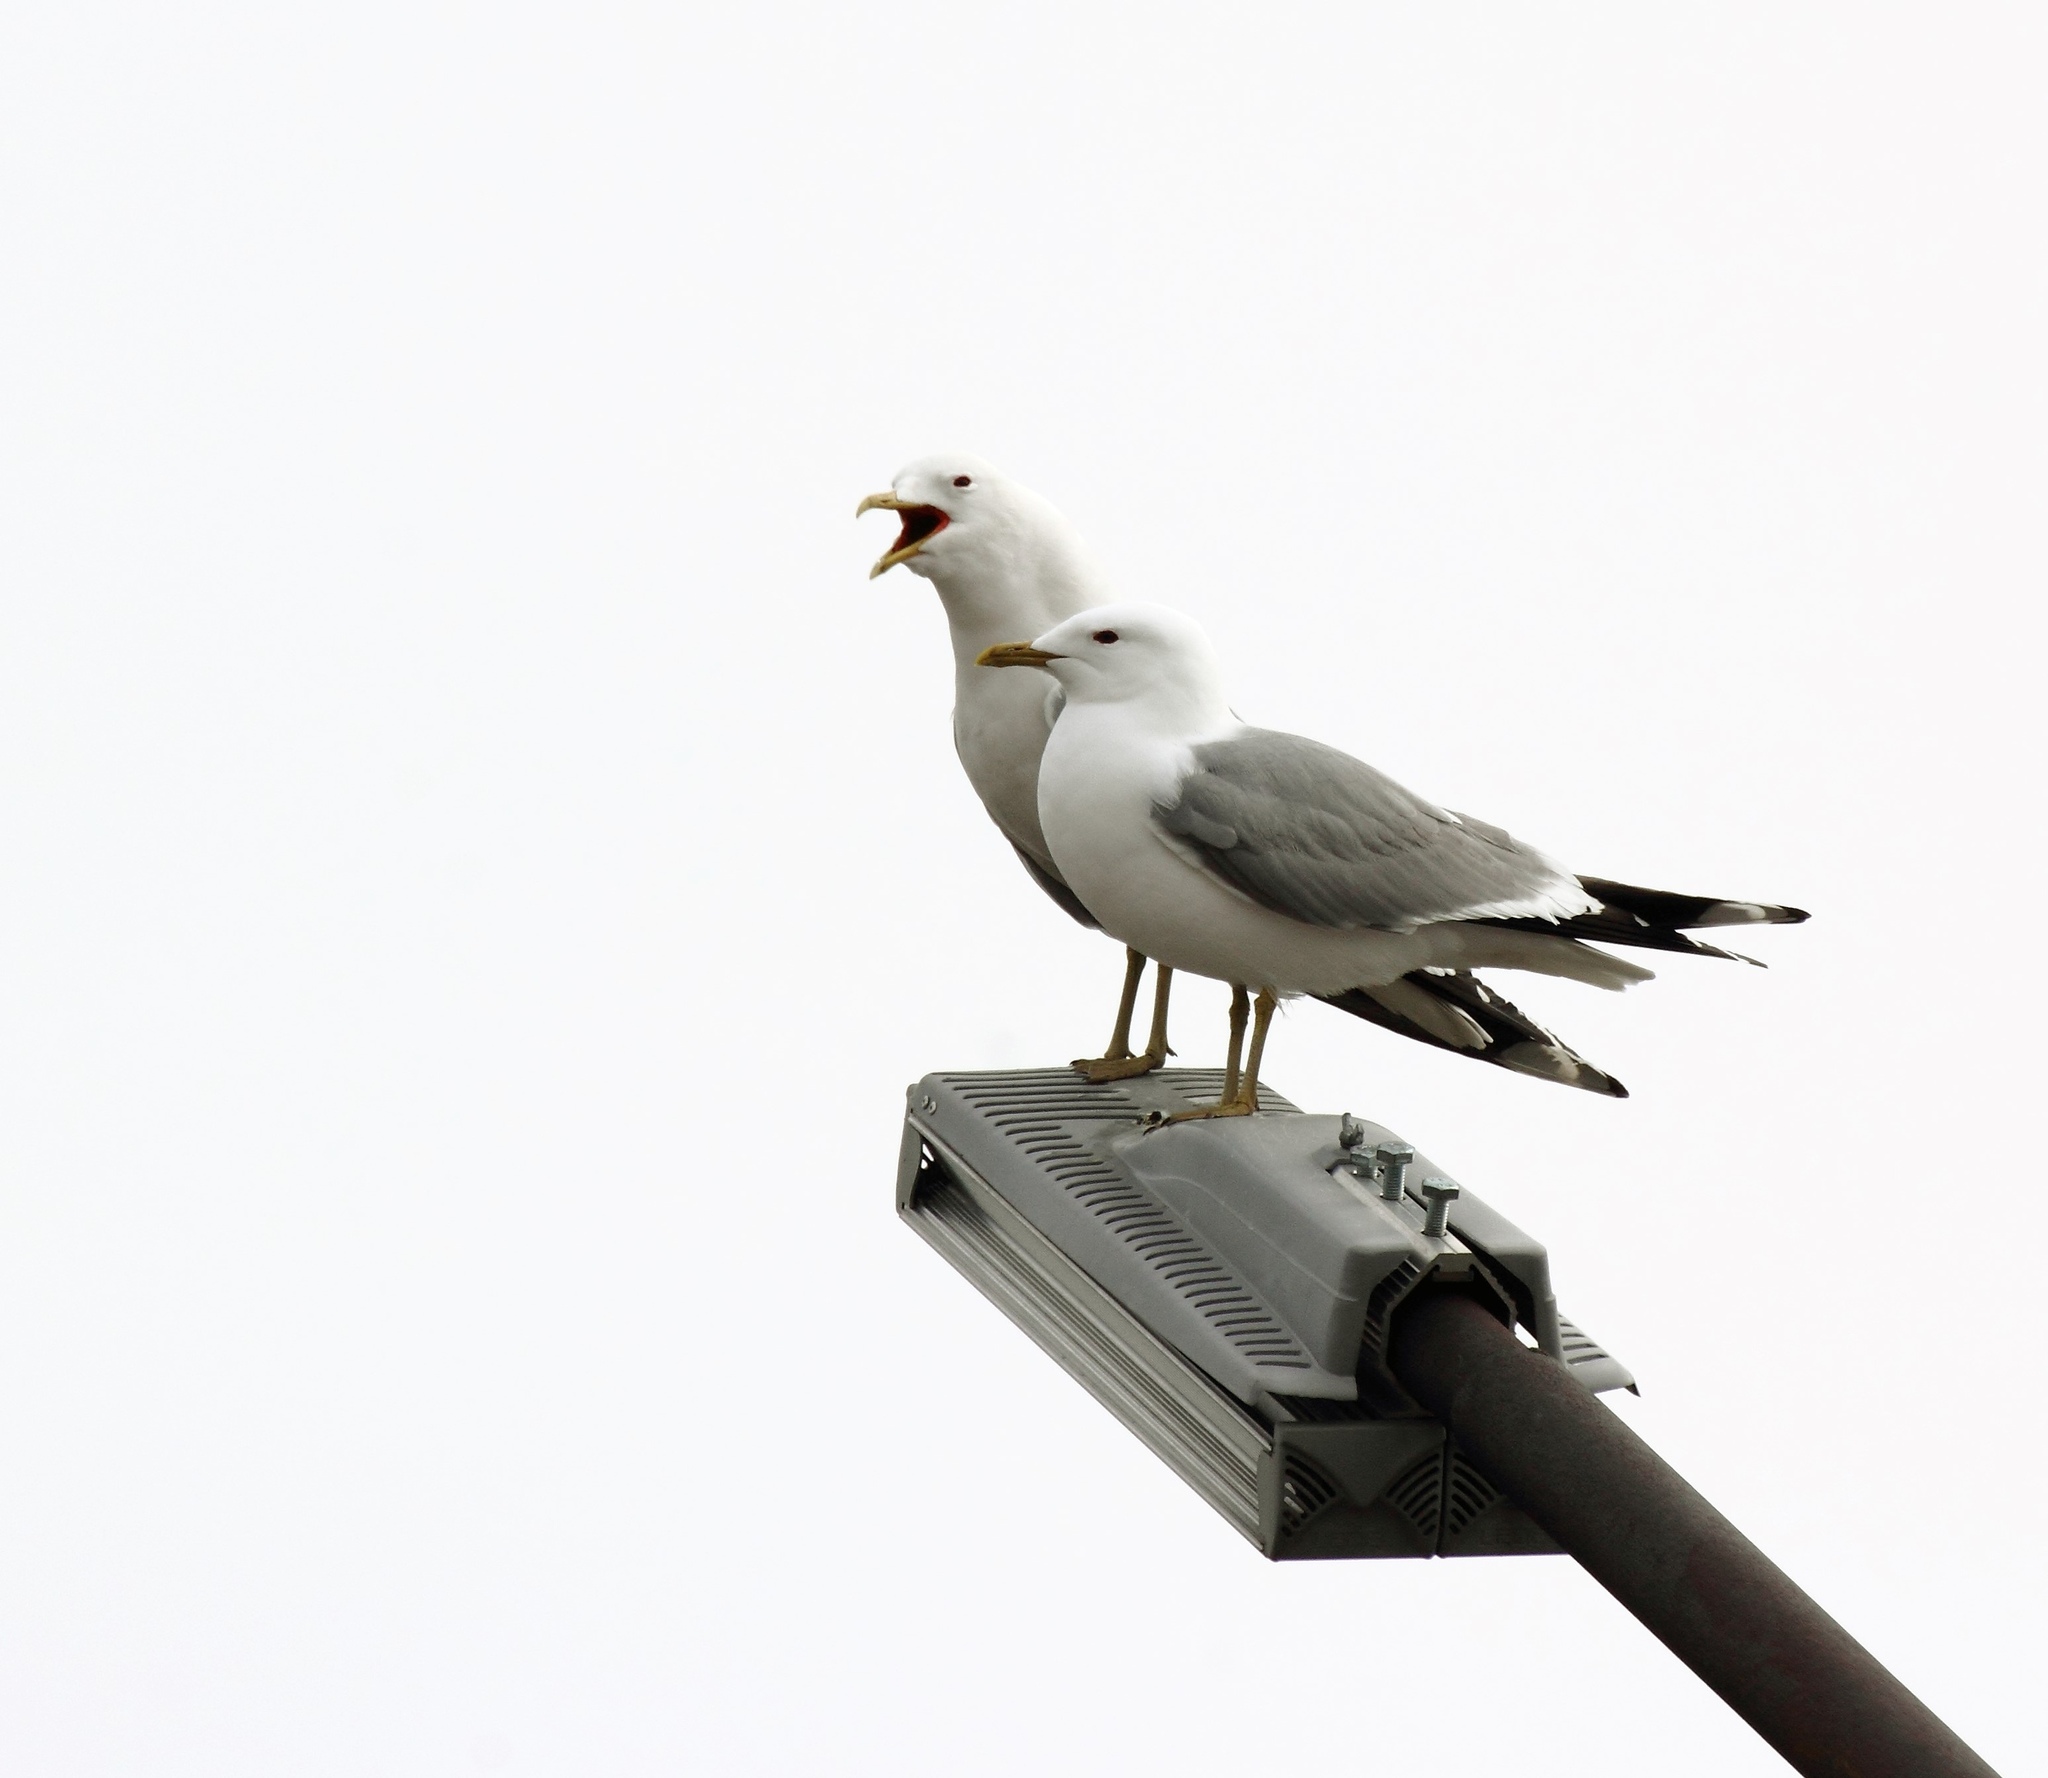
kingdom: Animalia
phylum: Chordata
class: Aves
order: Charadriiformes
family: Laridae
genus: Larus
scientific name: Larus canus
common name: Mew gull
